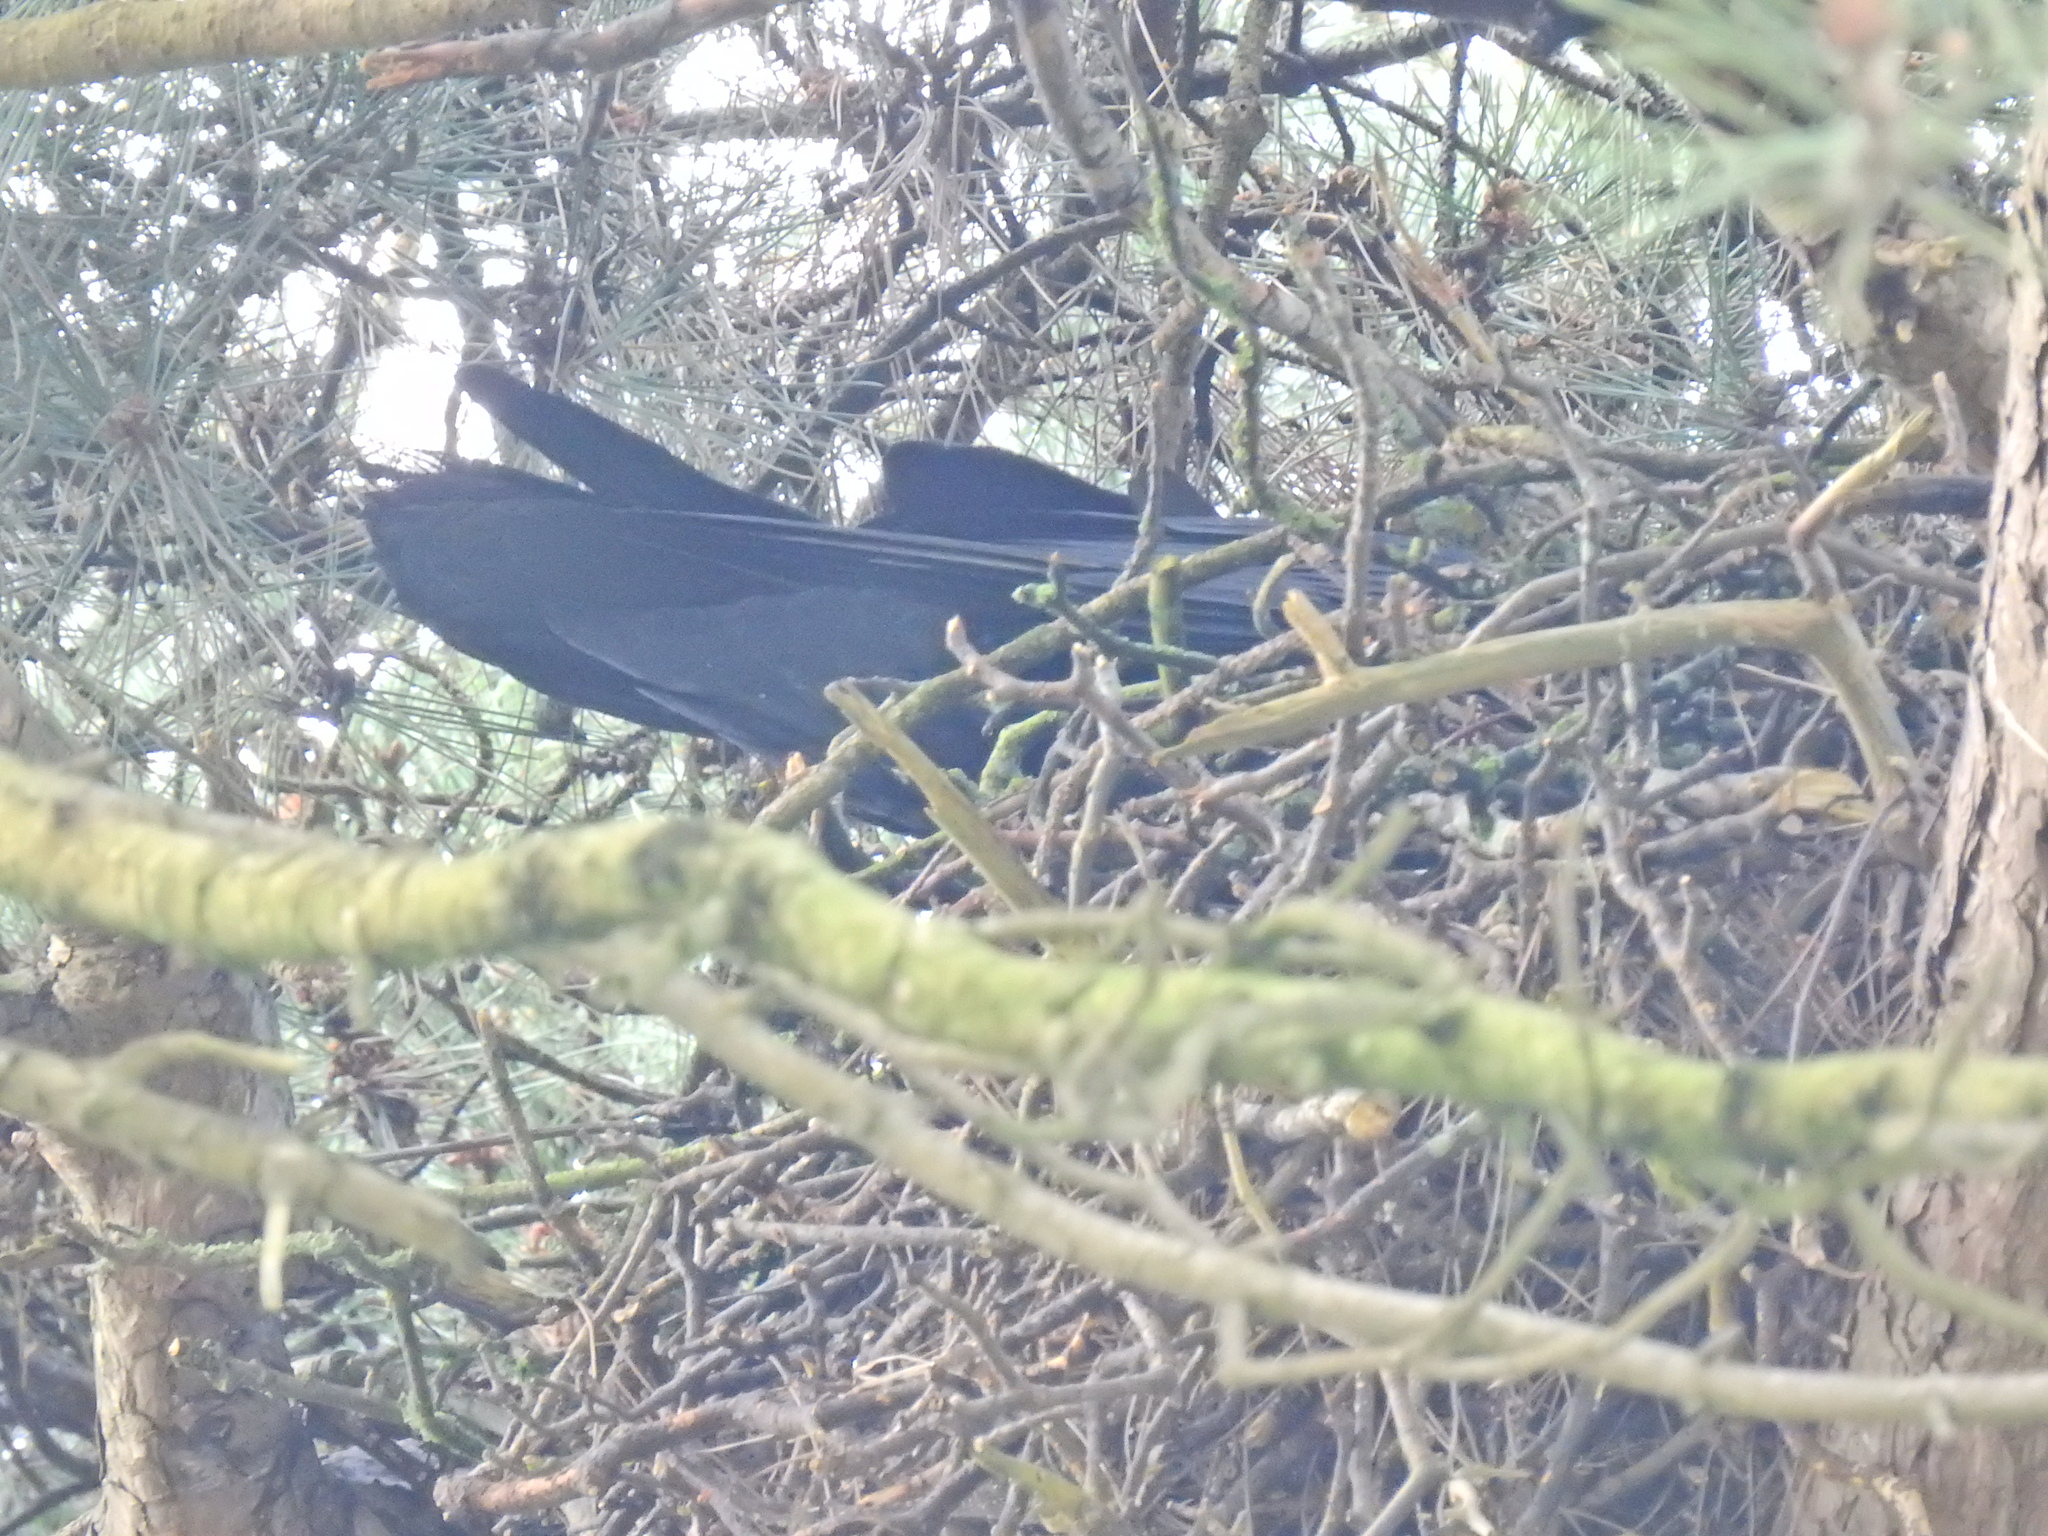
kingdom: Animalia
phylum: Chordata
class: Aves
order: Passeriformes
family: Corvidae
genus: Corvus
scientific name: Corvus corax
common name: Common raven
